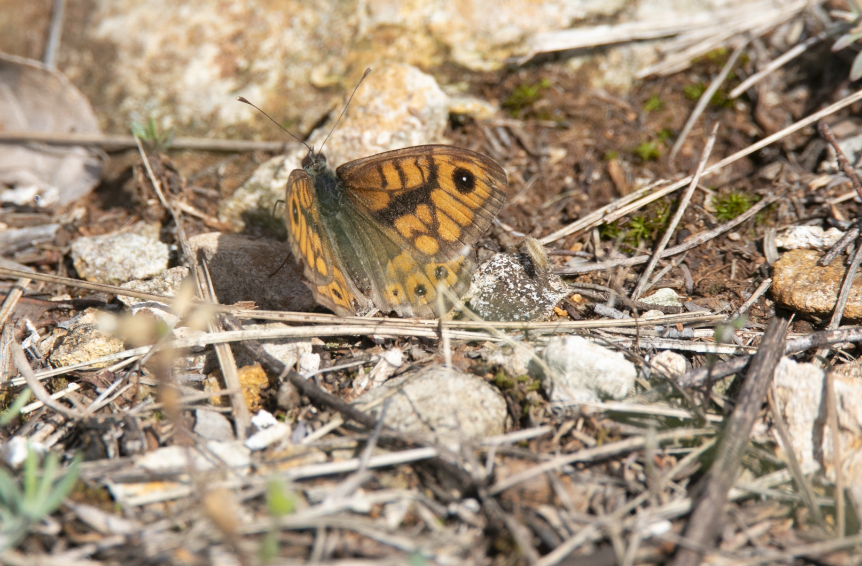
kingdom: Animalia
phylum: Arthropoda
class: Insecta
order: Lepidoptera
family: Nymphalidae
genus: Pararge
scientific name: Pararge Lasiommata megera
